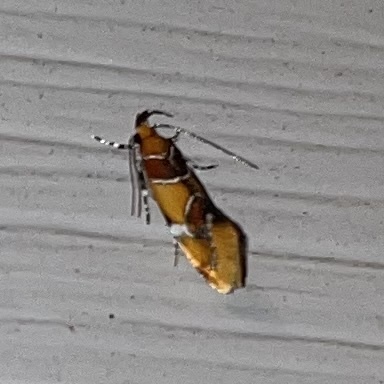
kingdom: Animalia
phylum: Arthropoda
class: Insecta
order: Lepidoptera
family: Oecophoridae
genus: Callima
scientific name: Callima argenticinctella
